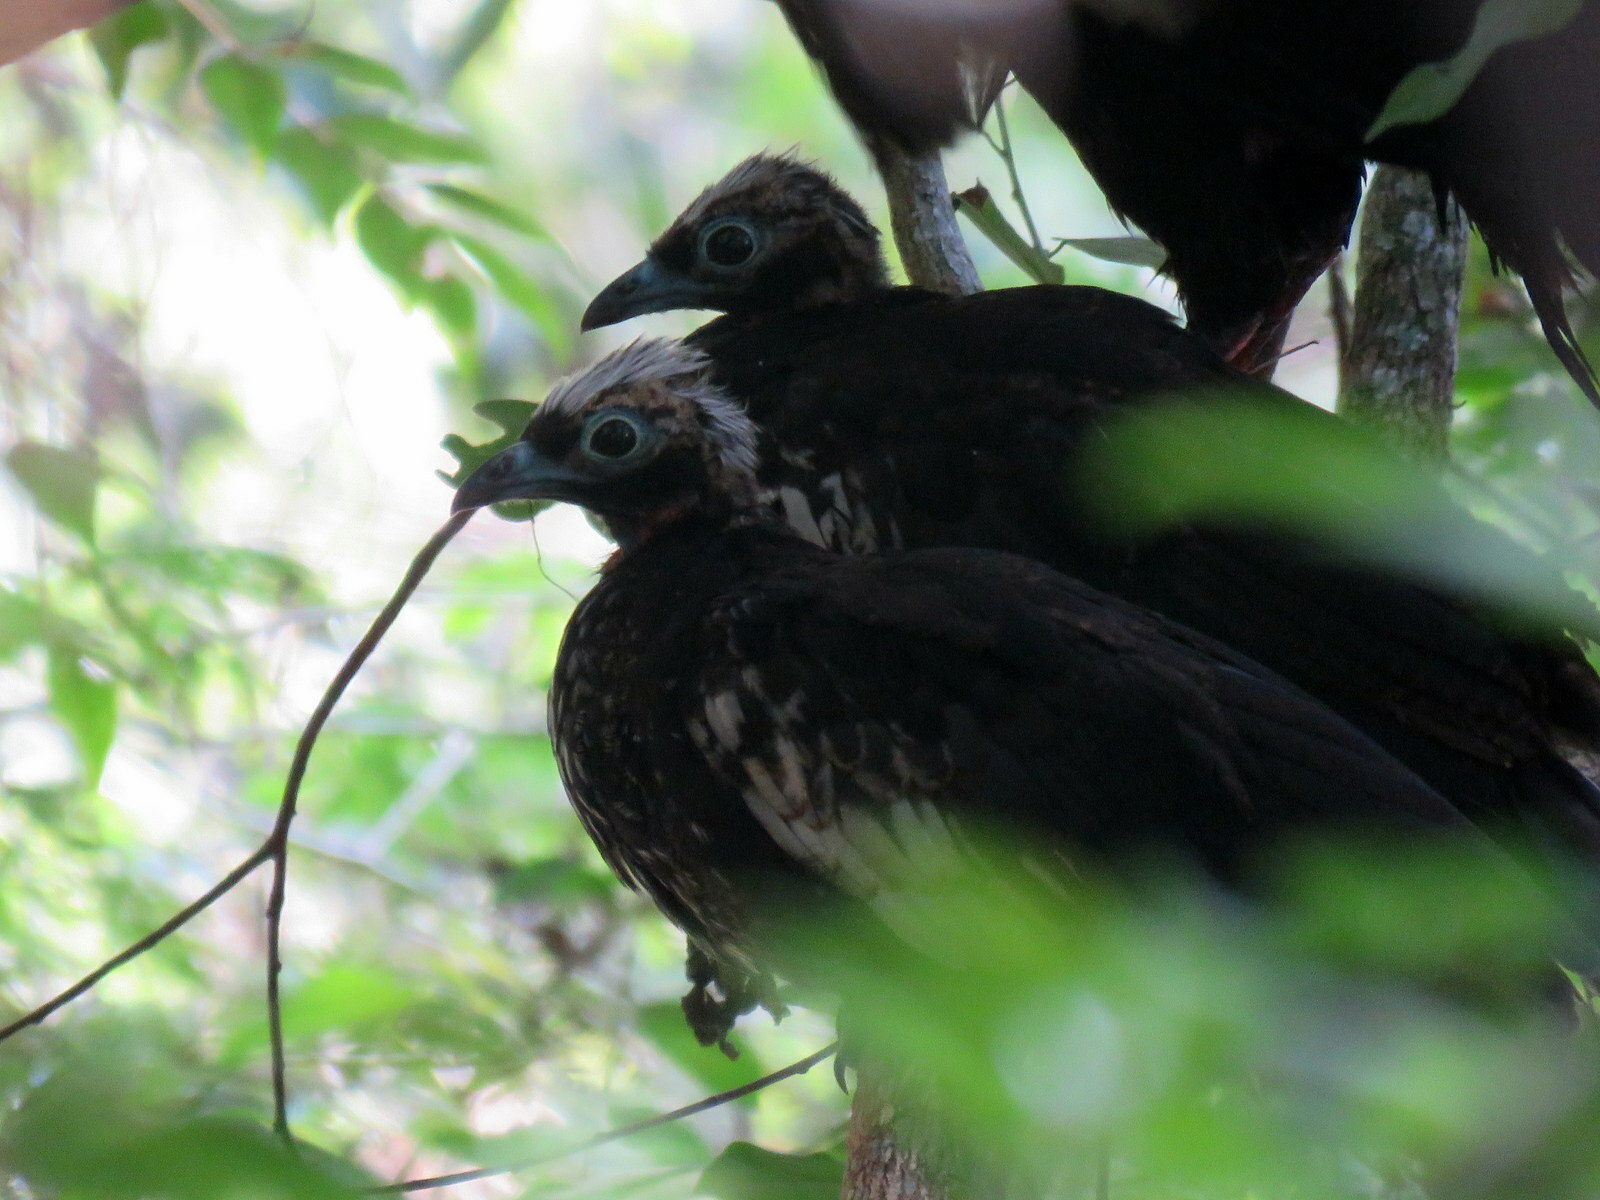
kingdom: Animalia
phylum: Chordata
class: Aves
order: Galliformes
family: Cracidae
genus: Pipile
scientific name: Pipile jacutinga
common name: Black-fronted piping-guan
